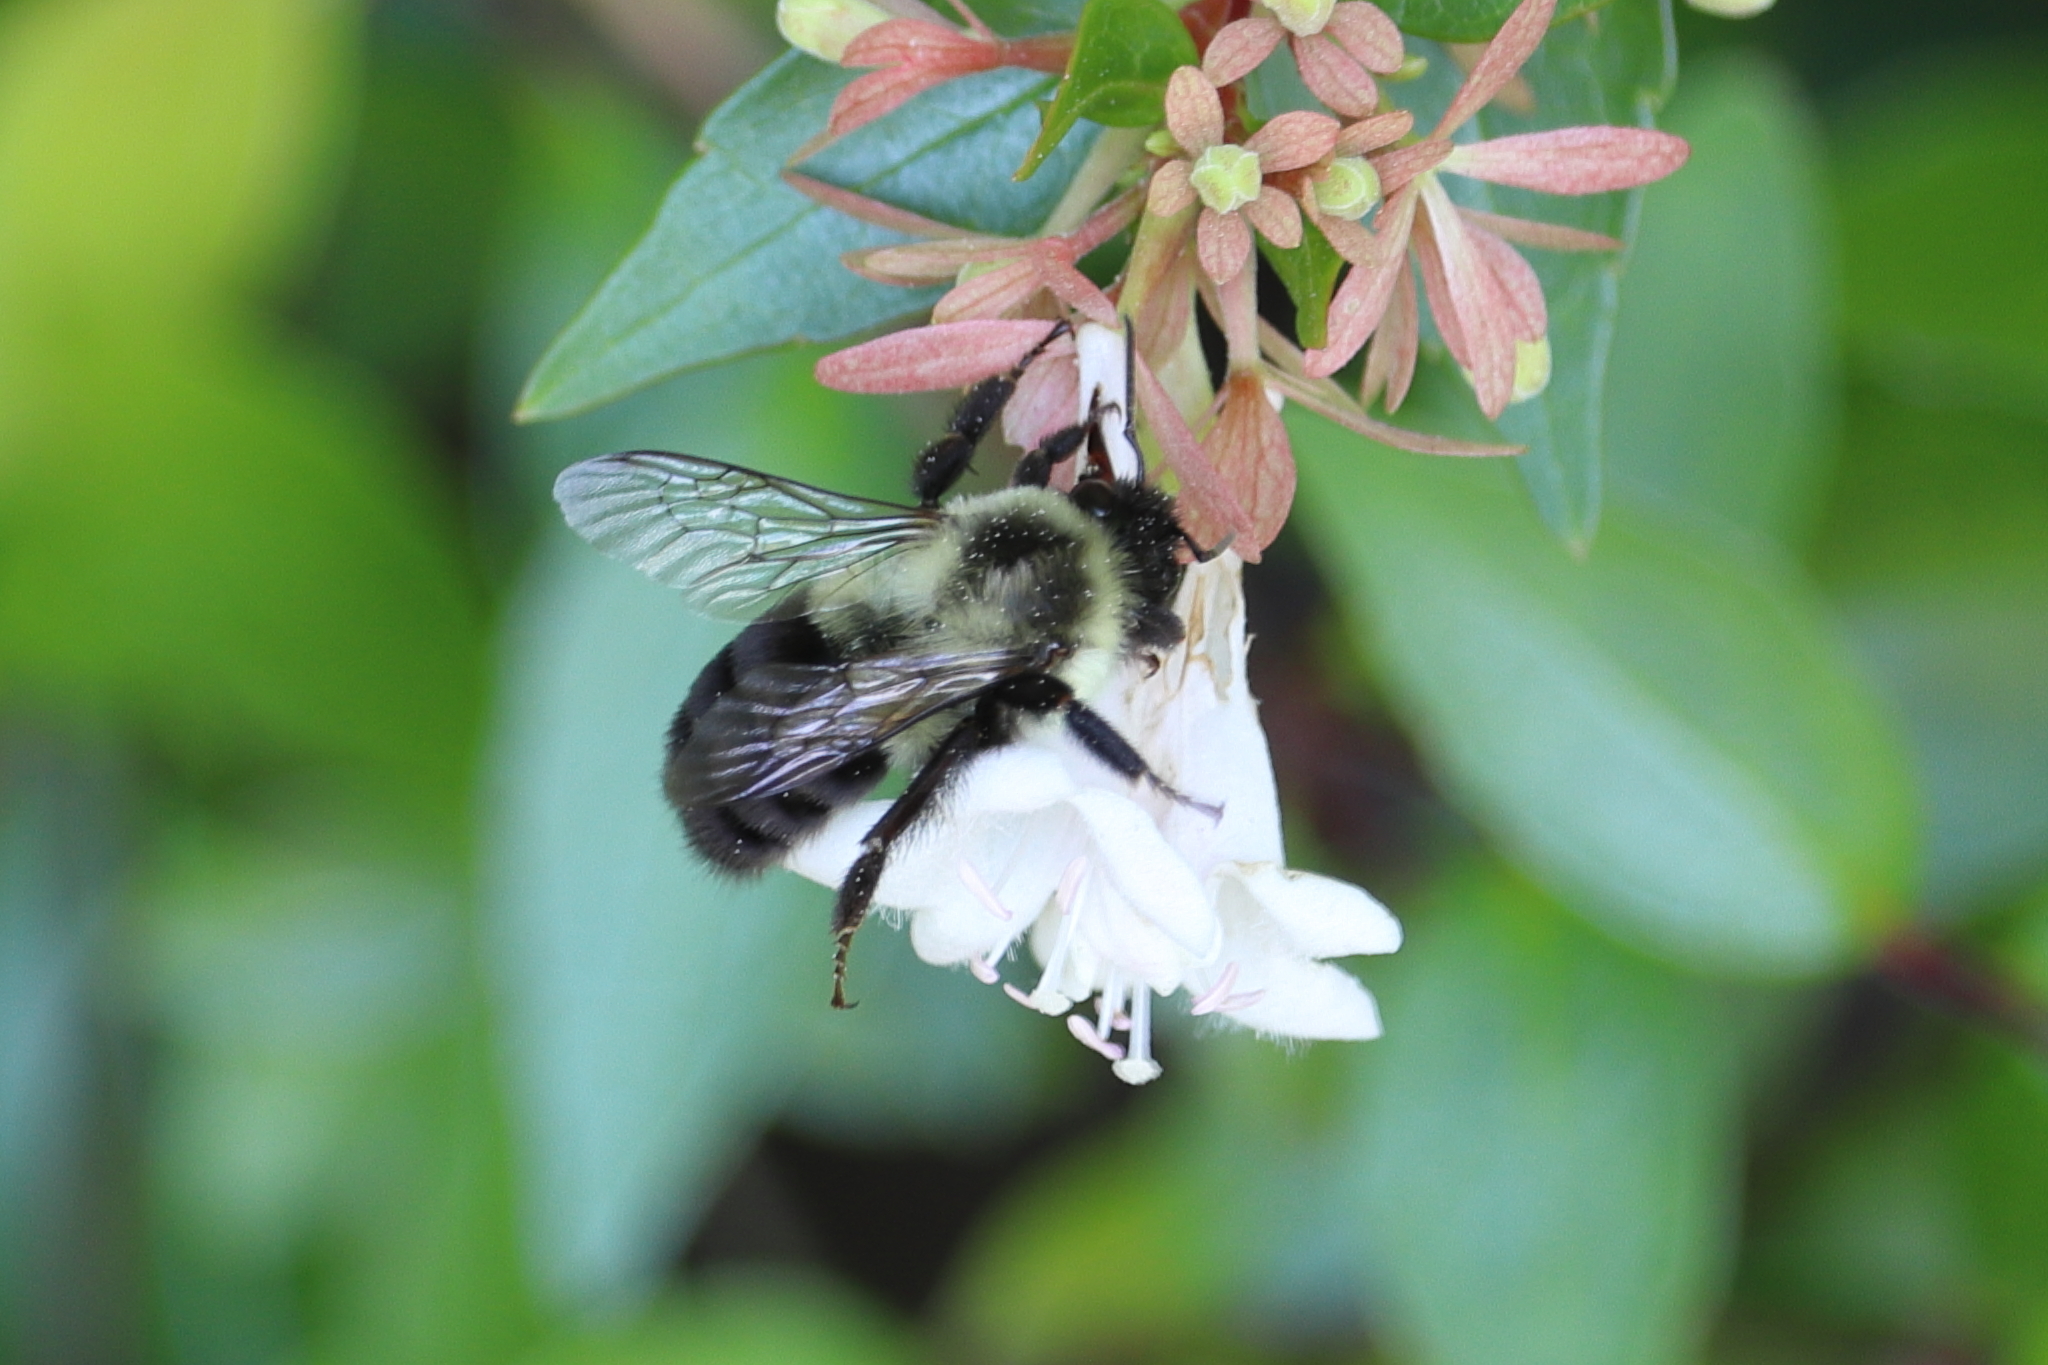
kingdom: Animalia
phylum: Arthropoda
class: Insecta
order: Hymenoptera
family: Apidae
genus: Bombus
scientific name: Bombus impatiens
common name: Common eastern bumble bee
